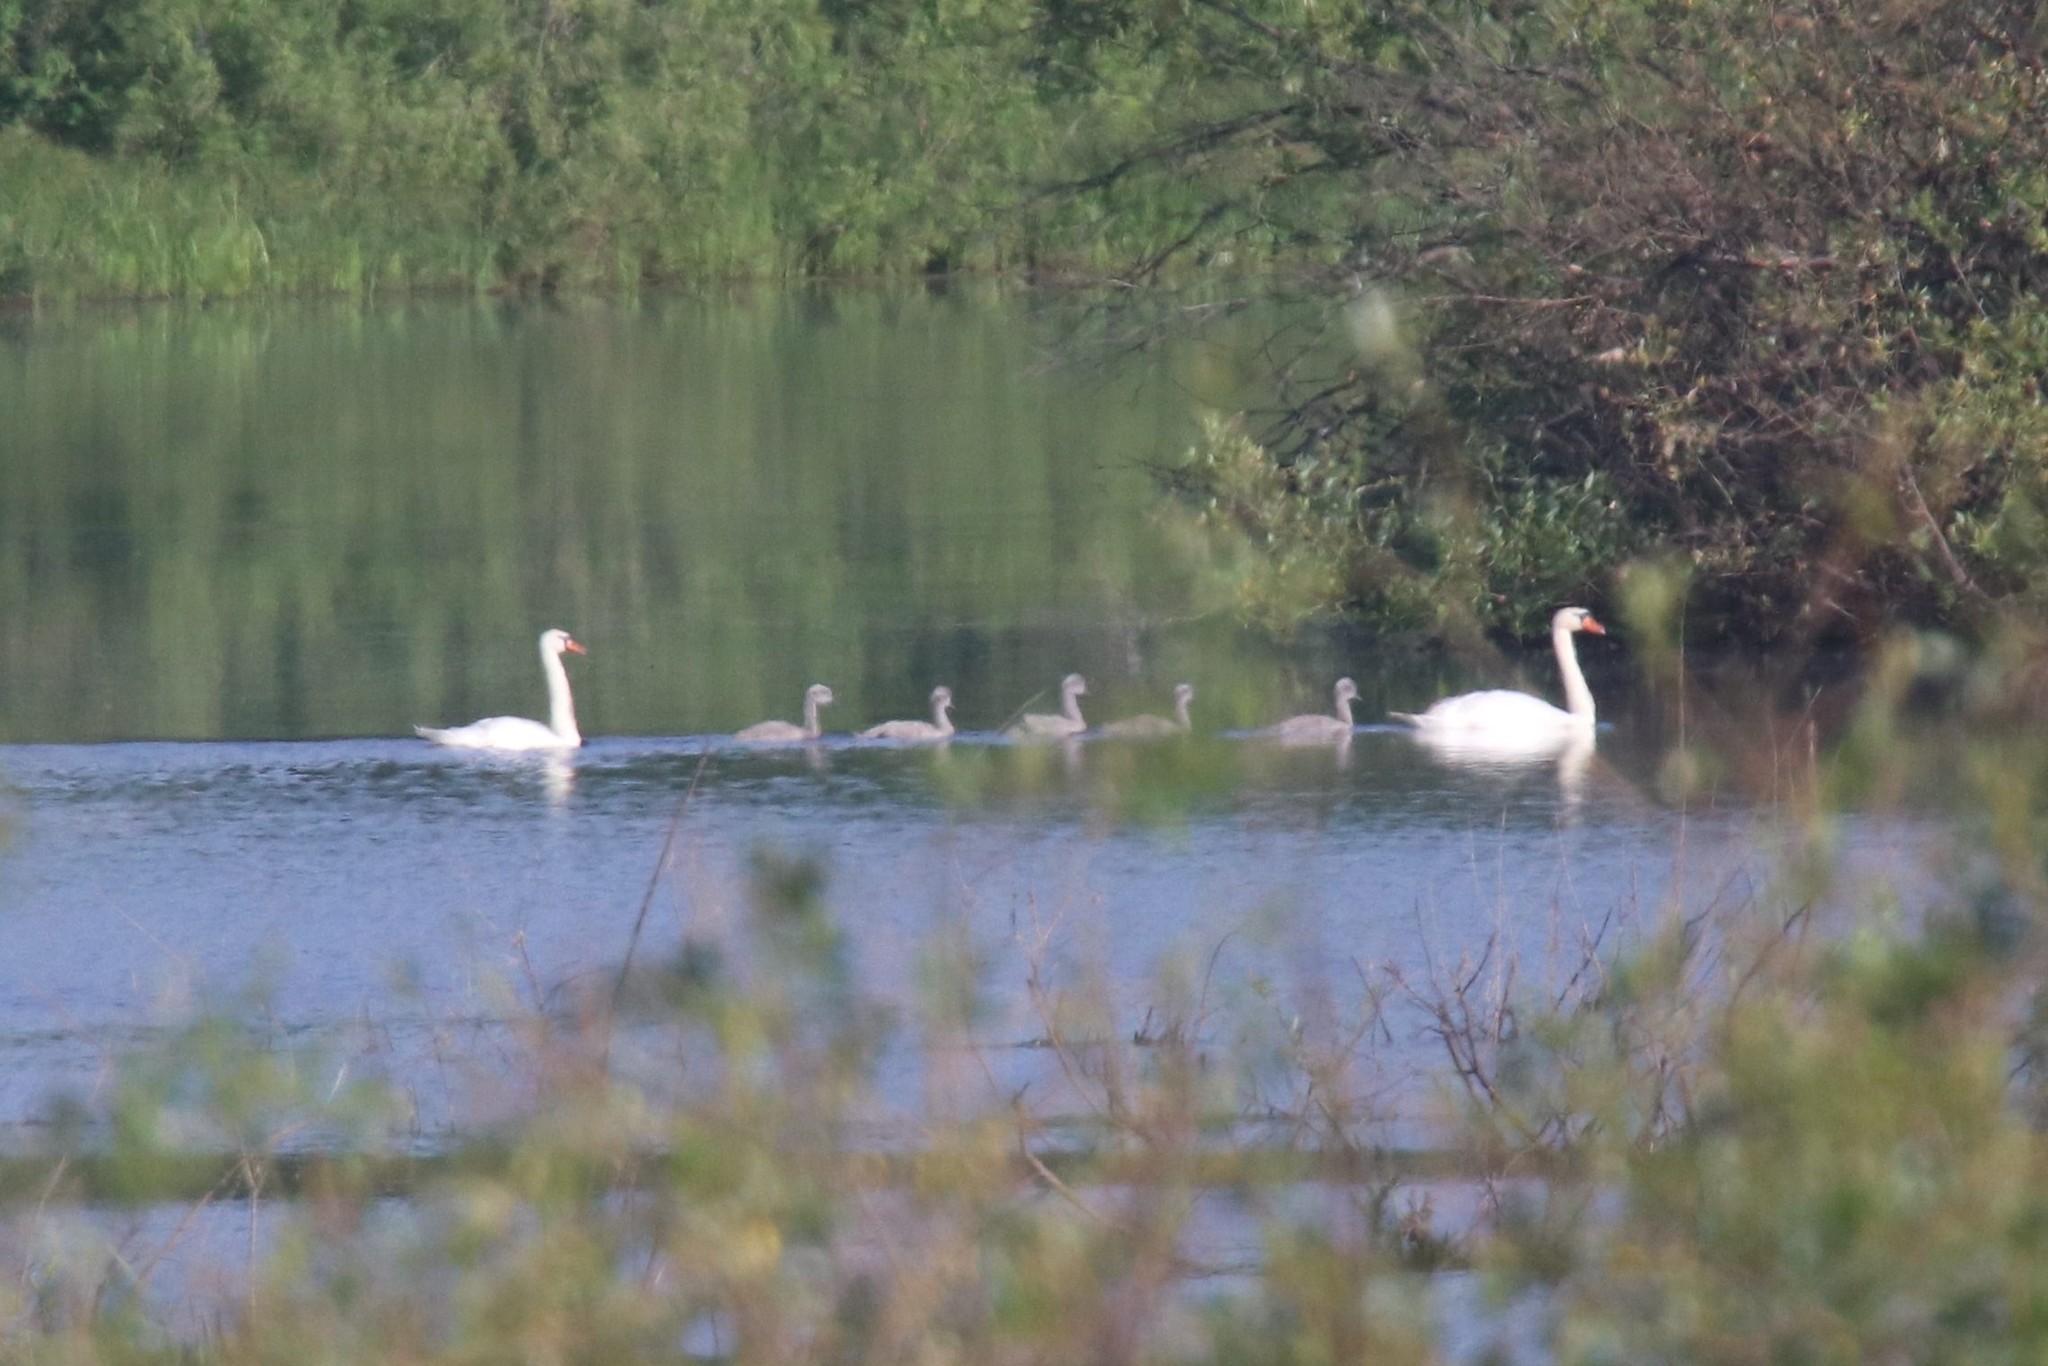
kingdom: Animalia
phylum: Chordata
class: Aves
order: Anseriformes
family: Anatidae
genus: Cygnus
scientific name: Cygnus olor
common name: Mute swan
